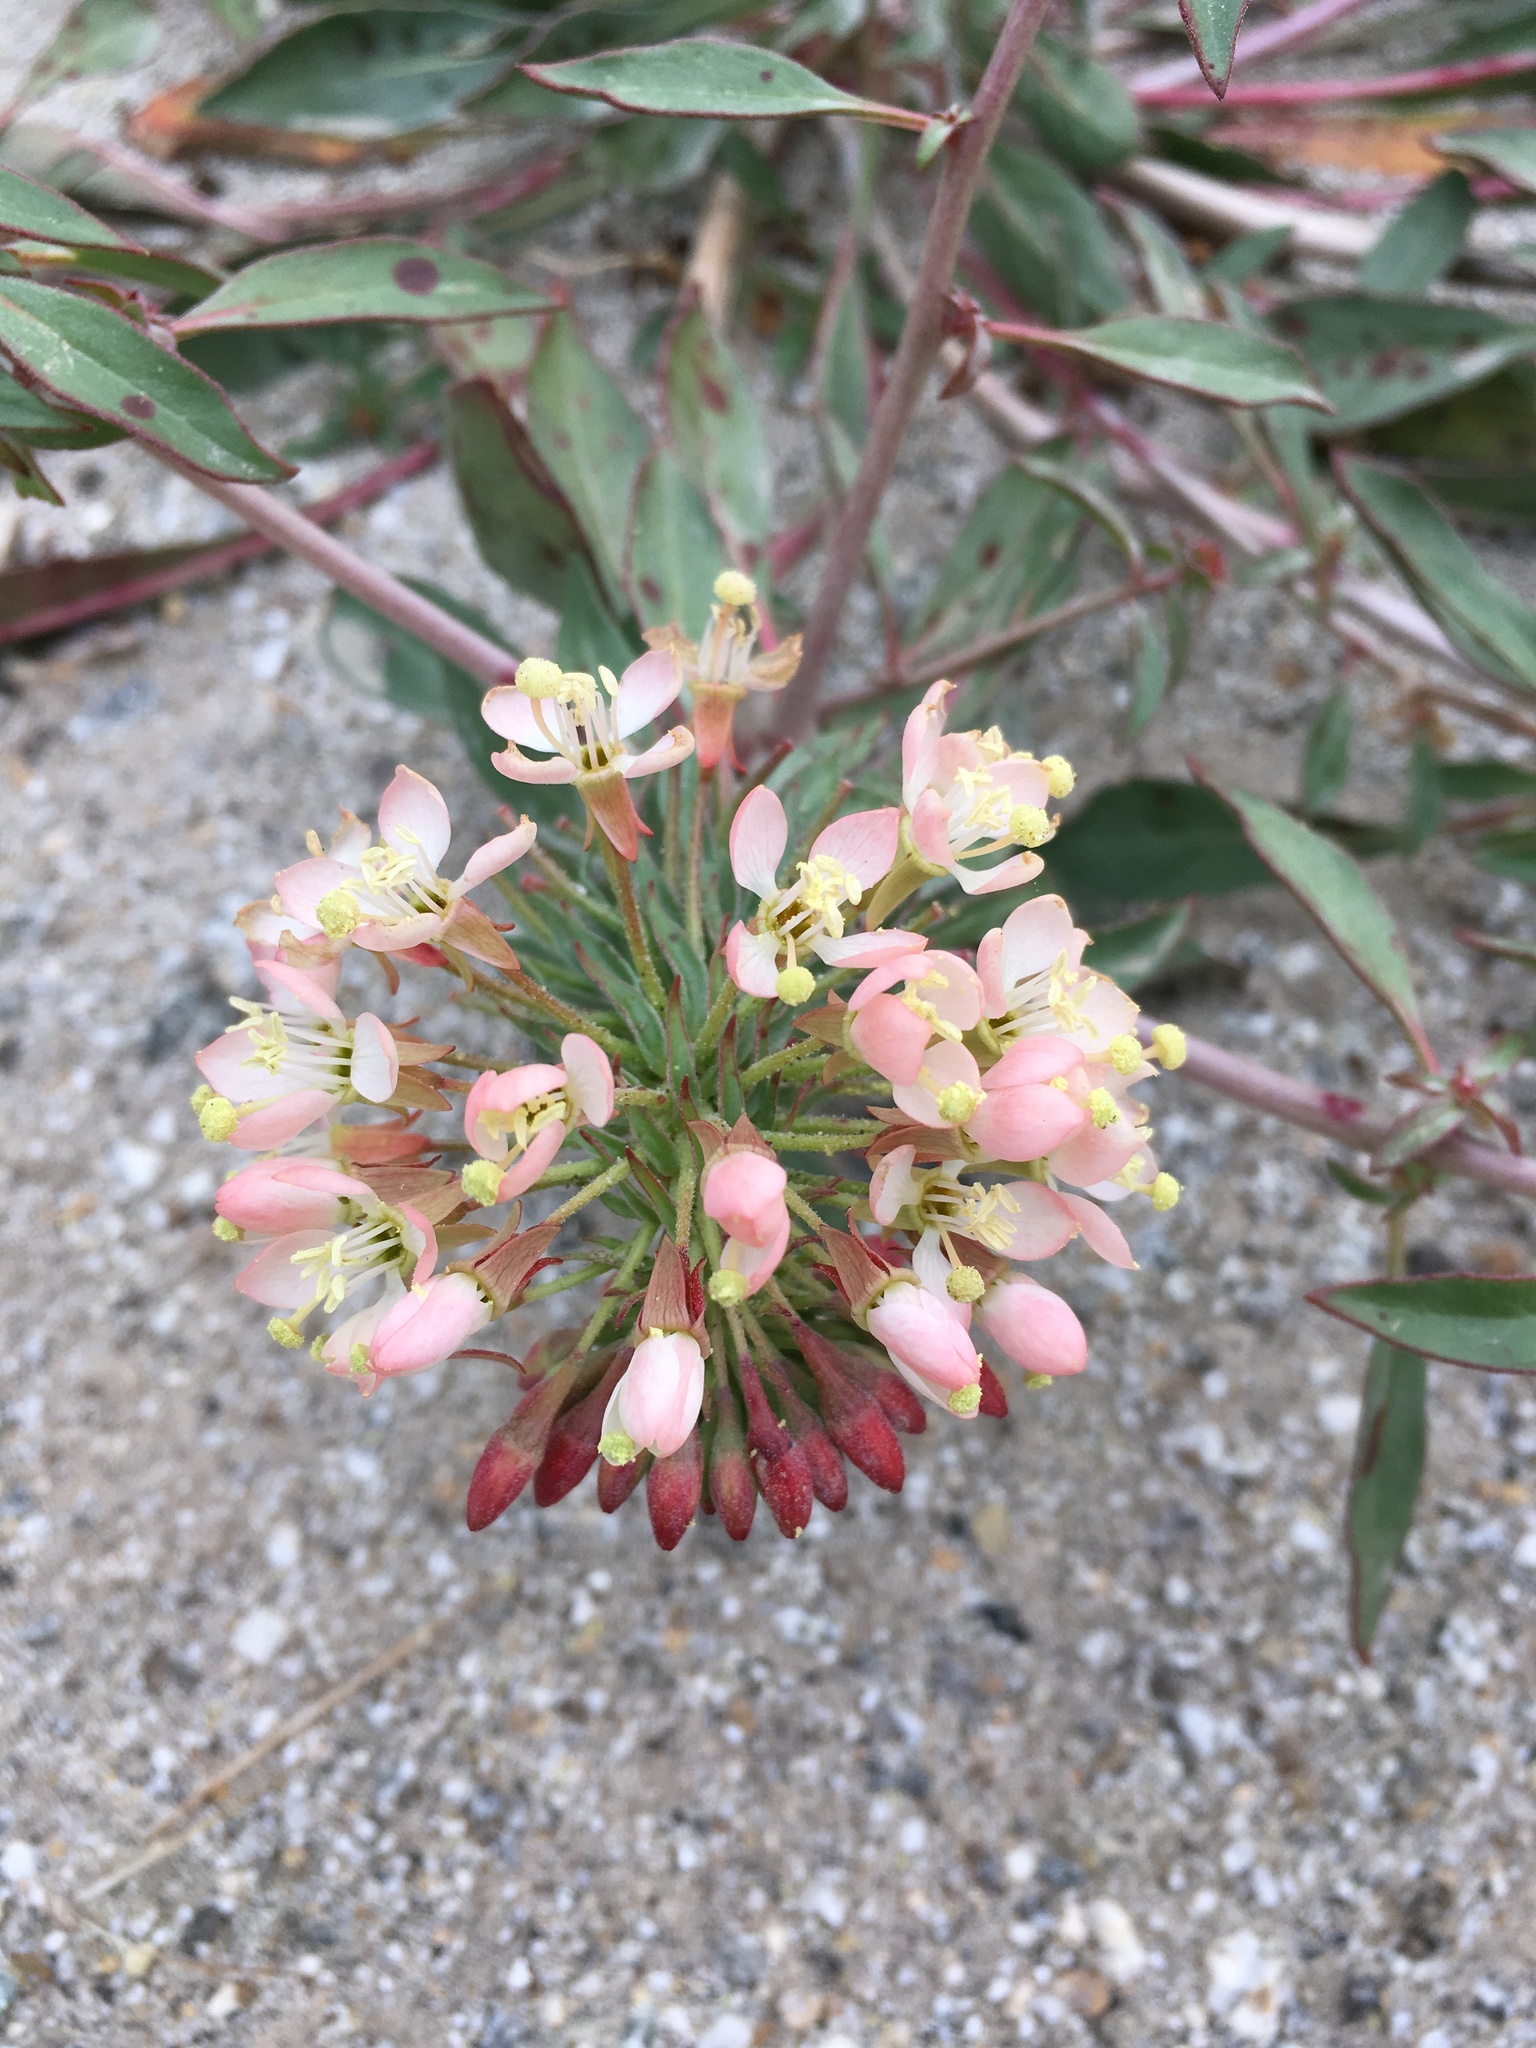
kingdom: Plantae
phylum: Tracheophyta
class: Magnoliopsida
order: Myrtales
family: Onagraceae
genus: Eremothera
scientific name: Eremothera boothii
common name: Booth's evening primrose
